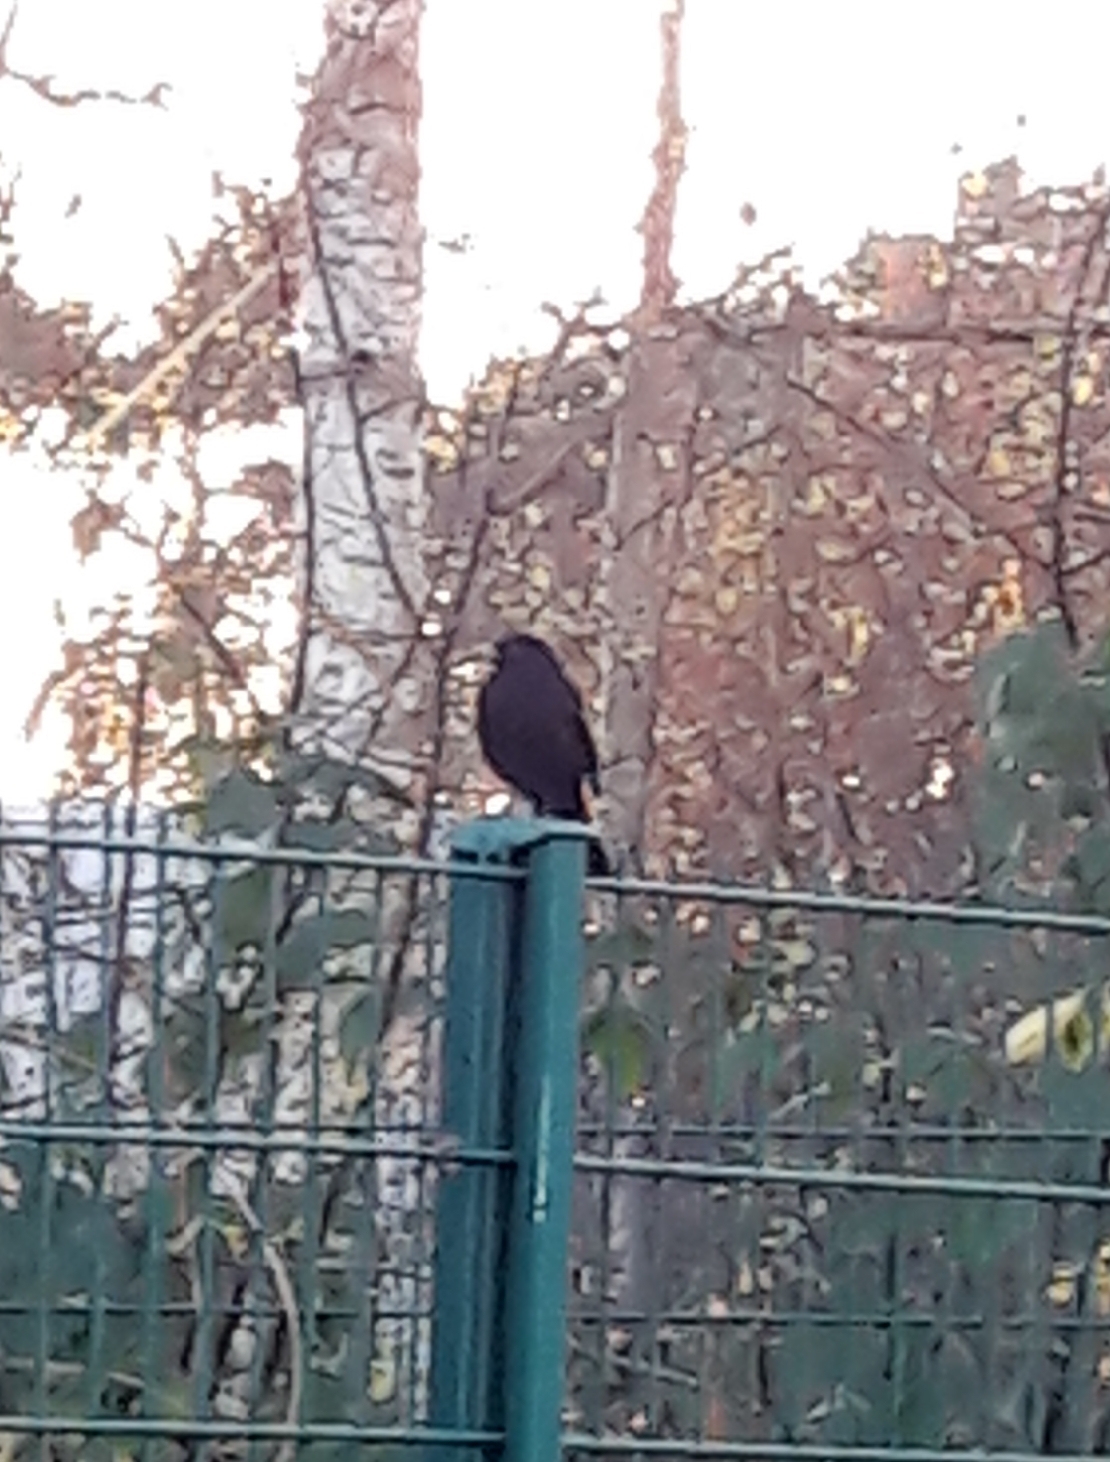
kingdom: Animalia
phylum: Chordata
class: Aves
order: Passeriformes
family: Turdidae
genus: Turdus
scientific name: Turdus merula
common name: Common blackbird
